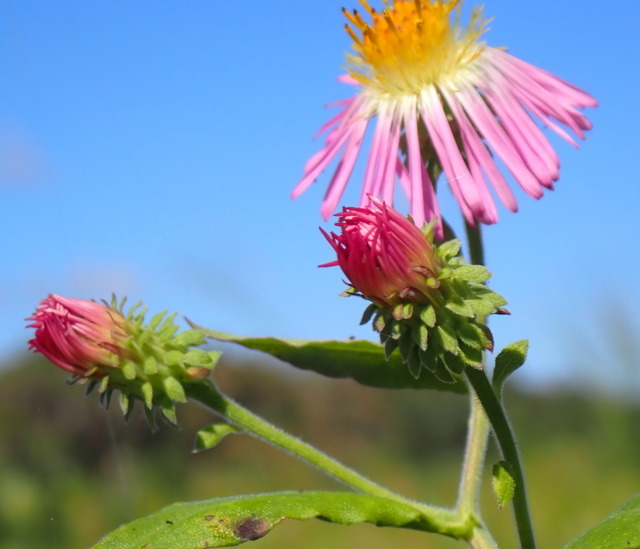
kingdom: Plantae
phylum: Tracheophyta
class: Magnoliopsida
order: Asterales
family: Asteraceae
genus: Ampelaster
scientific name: Ampelaster carolinianus
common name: Climbing aster
